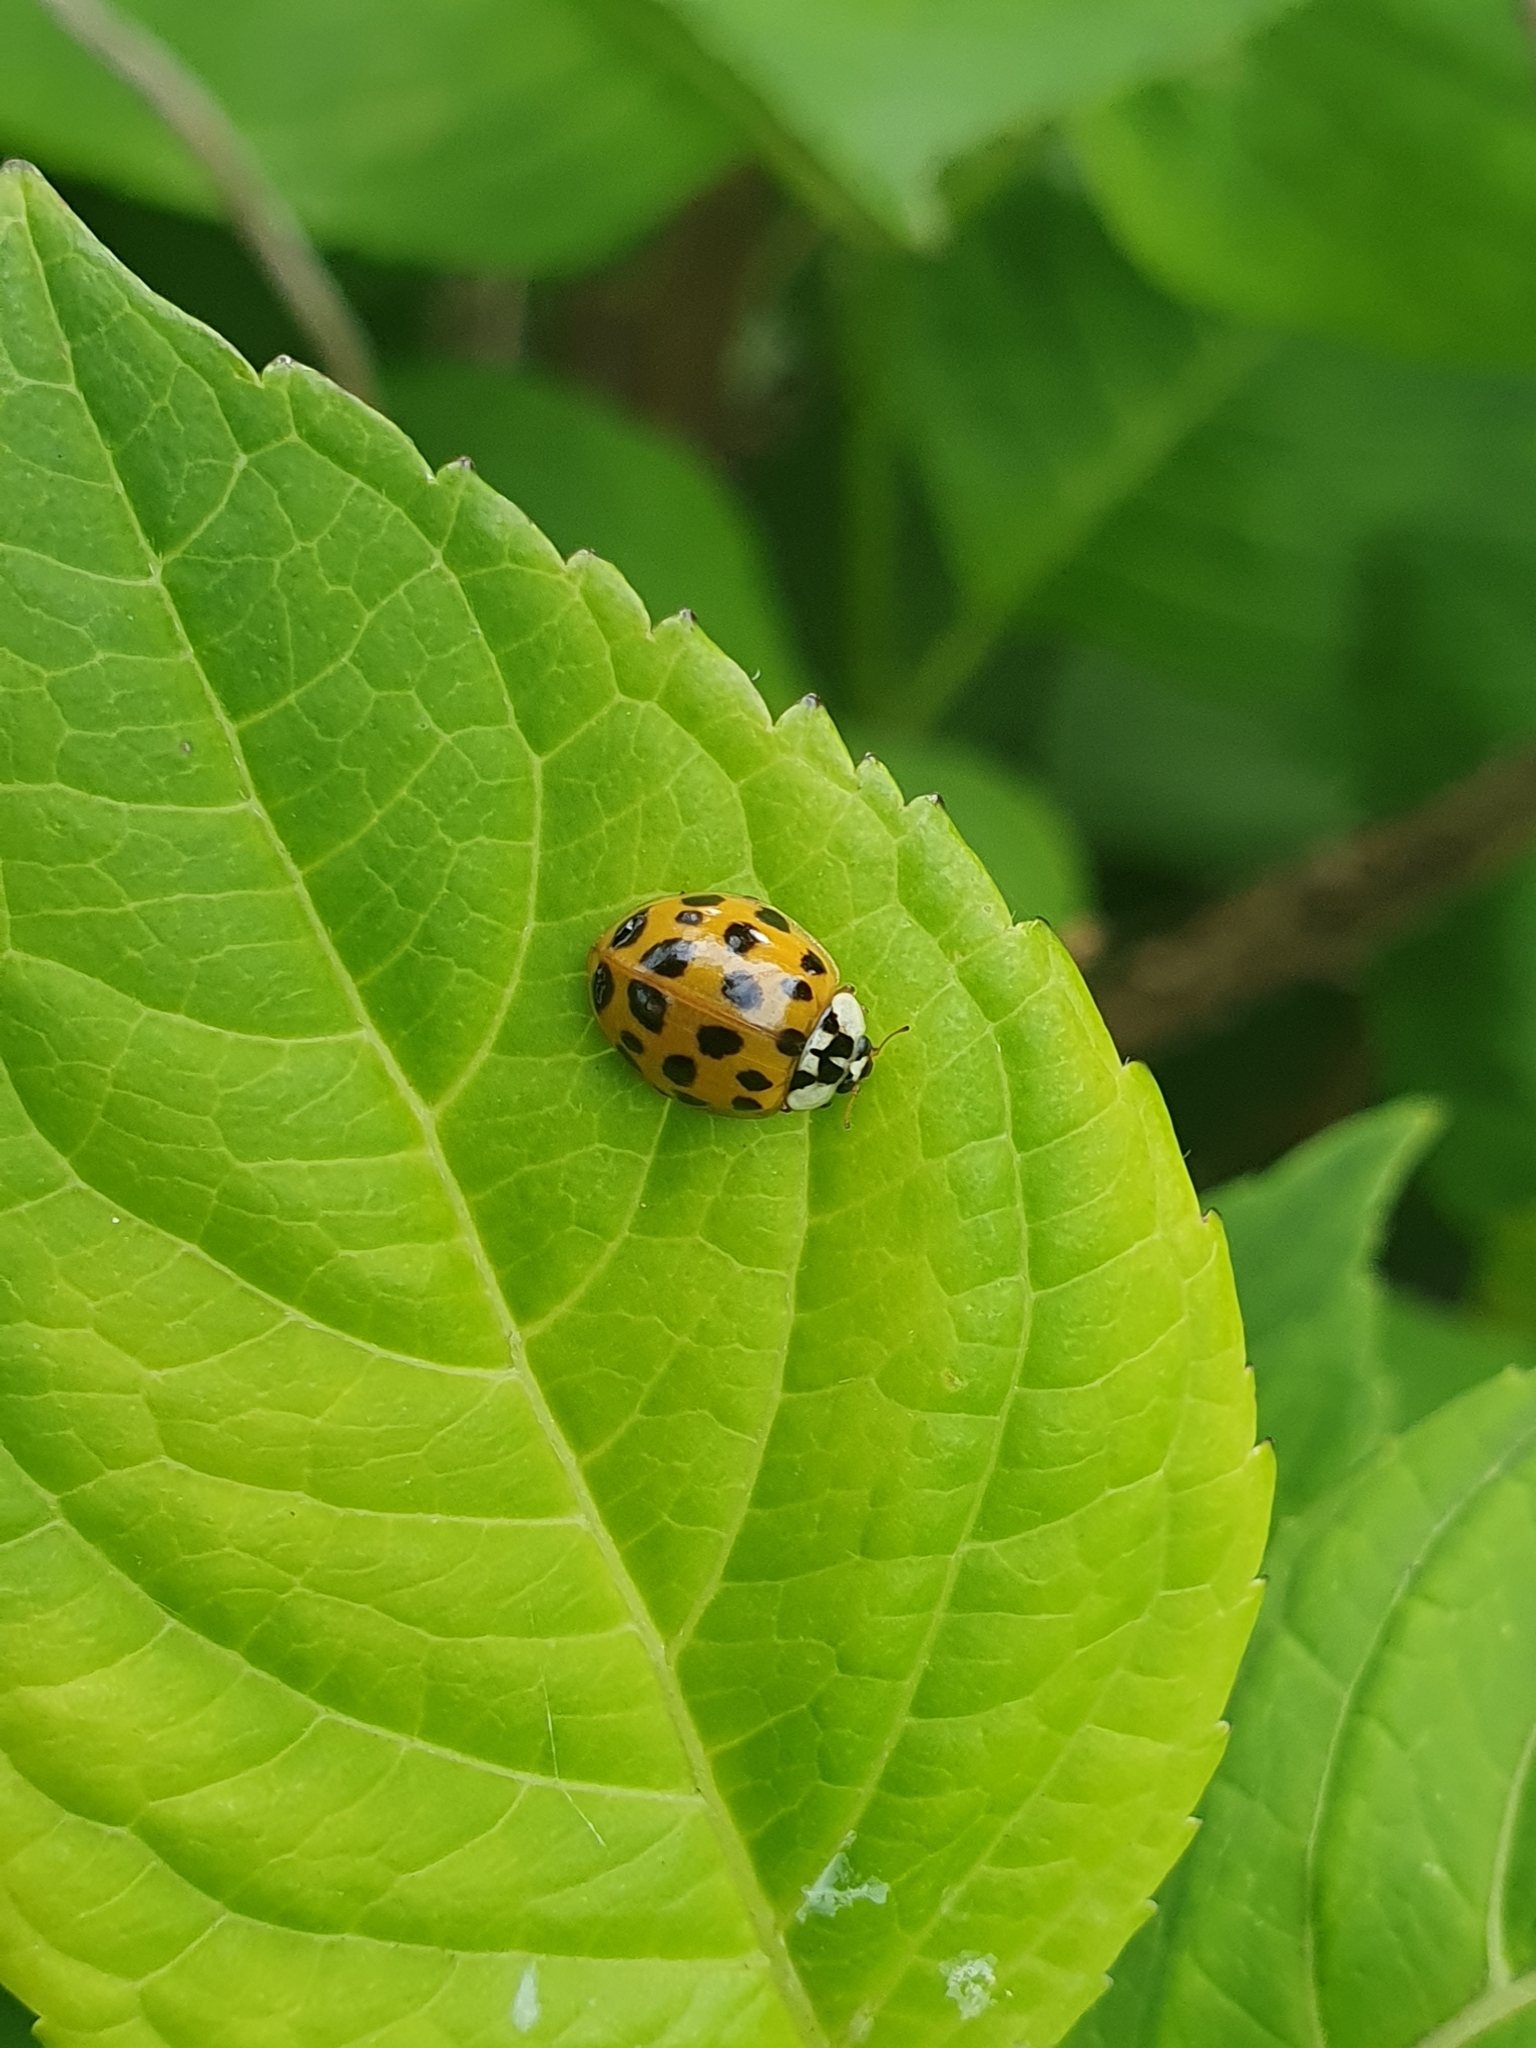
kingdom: Animalia
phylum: Arthropoda
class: Insecta
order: Coleoptera
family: Coccinellidae
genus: Harmonia
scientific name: Harmonia axyridis
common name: Harlequin ladybird
